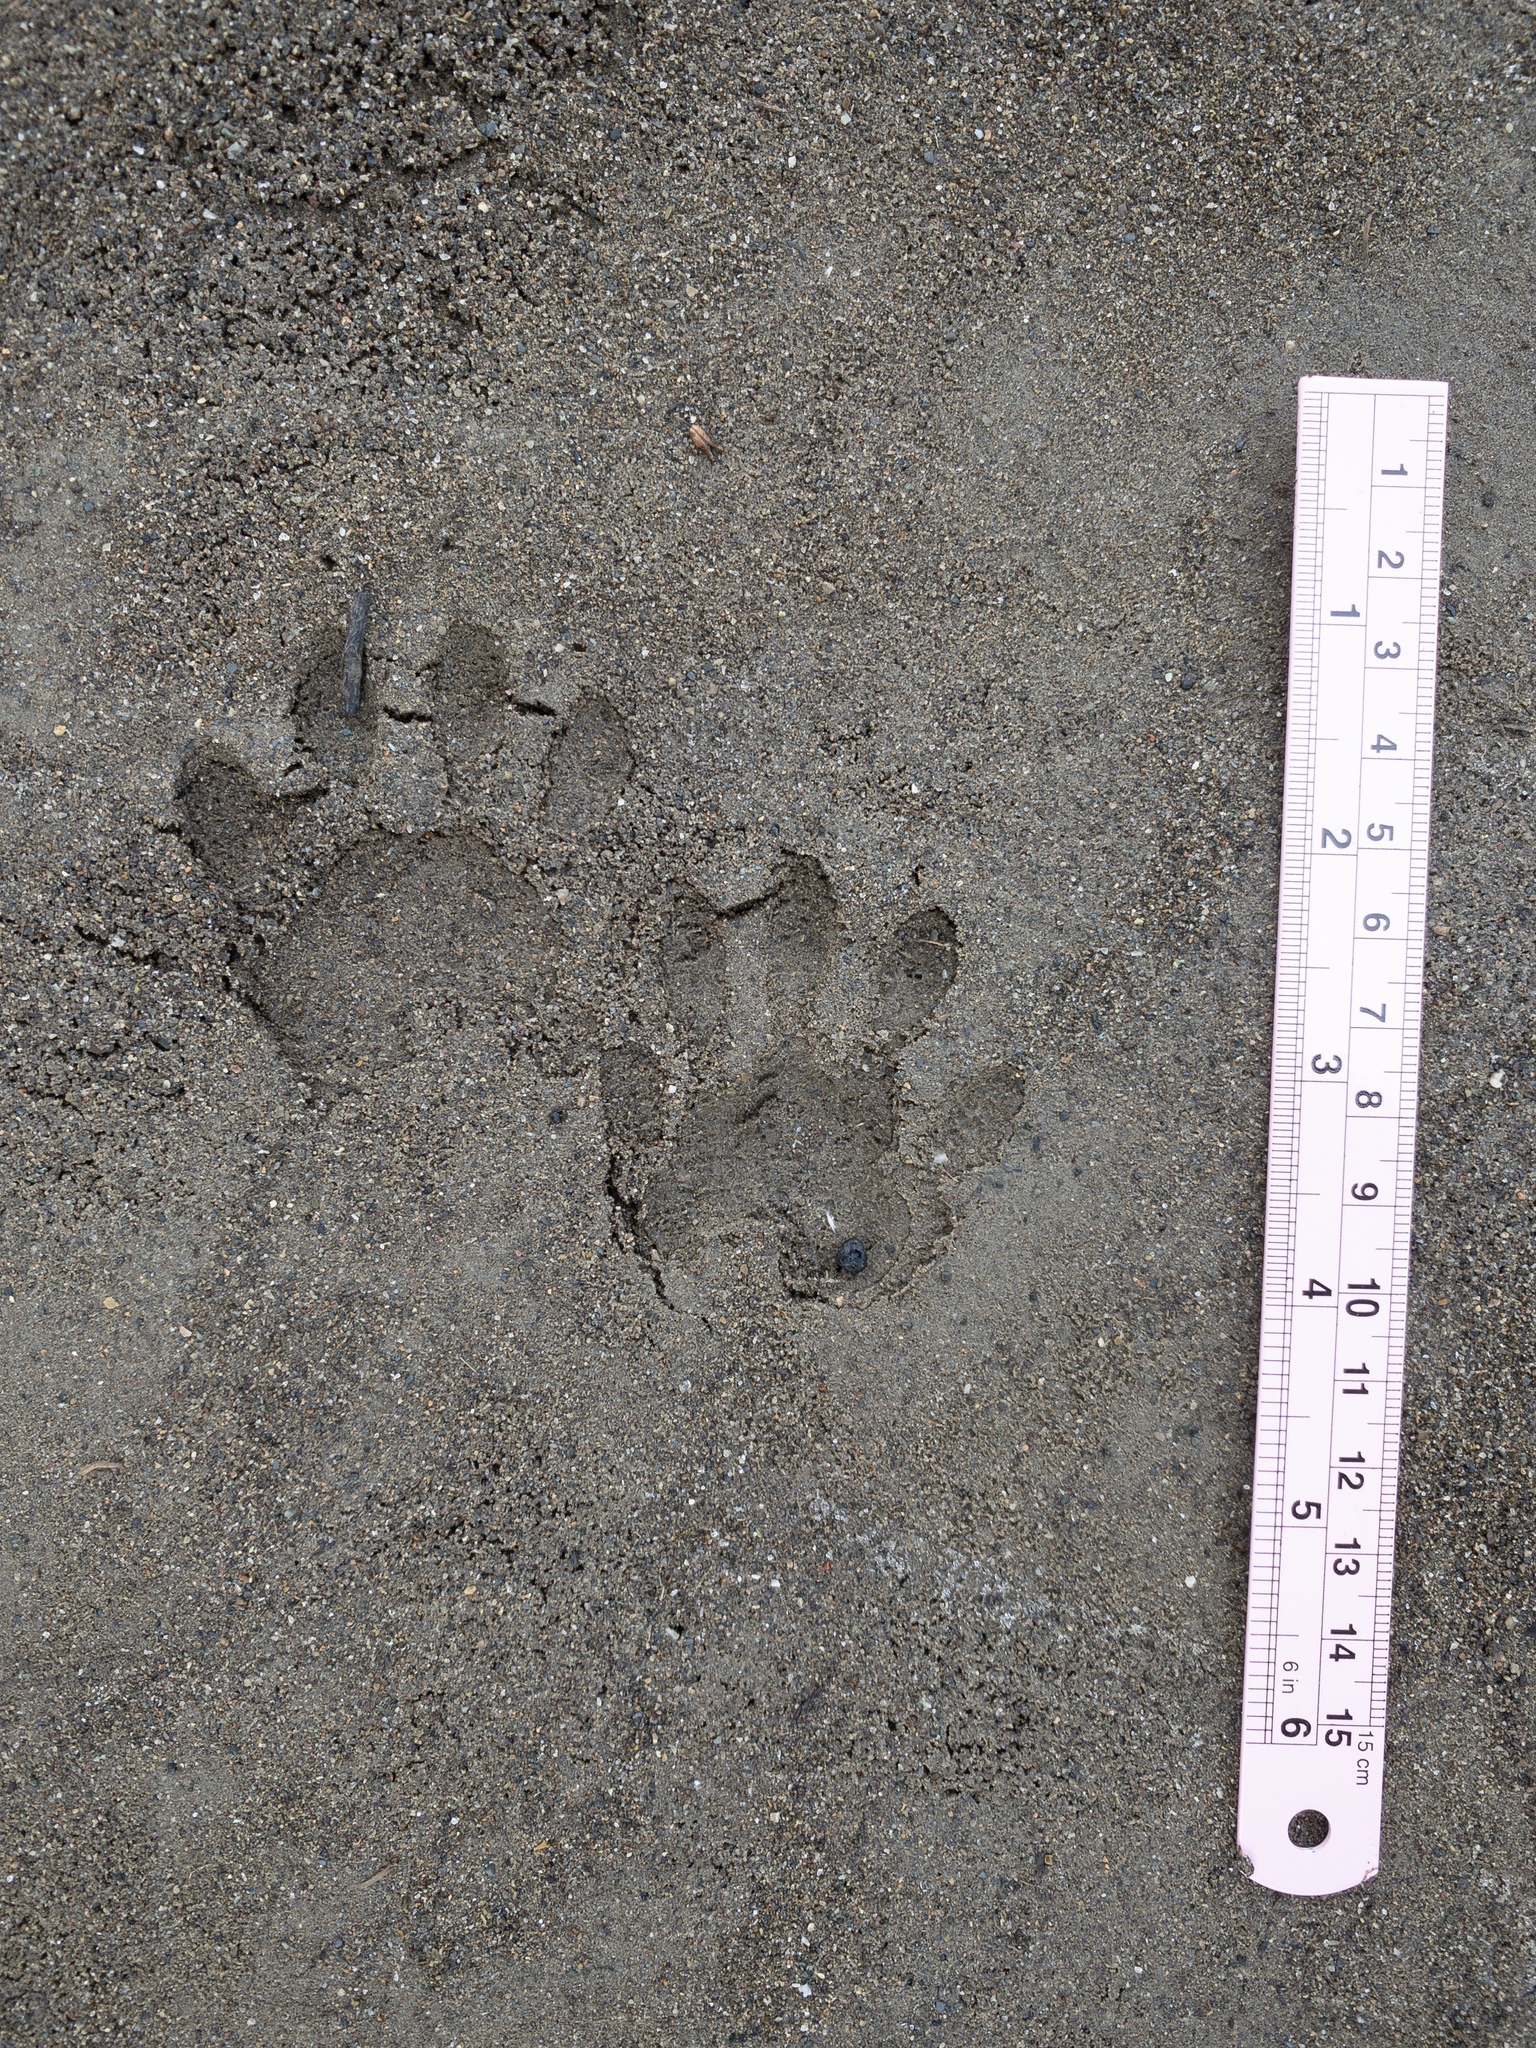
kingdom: Animalia
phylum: Chordata
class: Mammalia
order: Carnivora
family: Procyonidae
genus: Procyon
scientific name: Procyon lotor
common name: Raccoon
